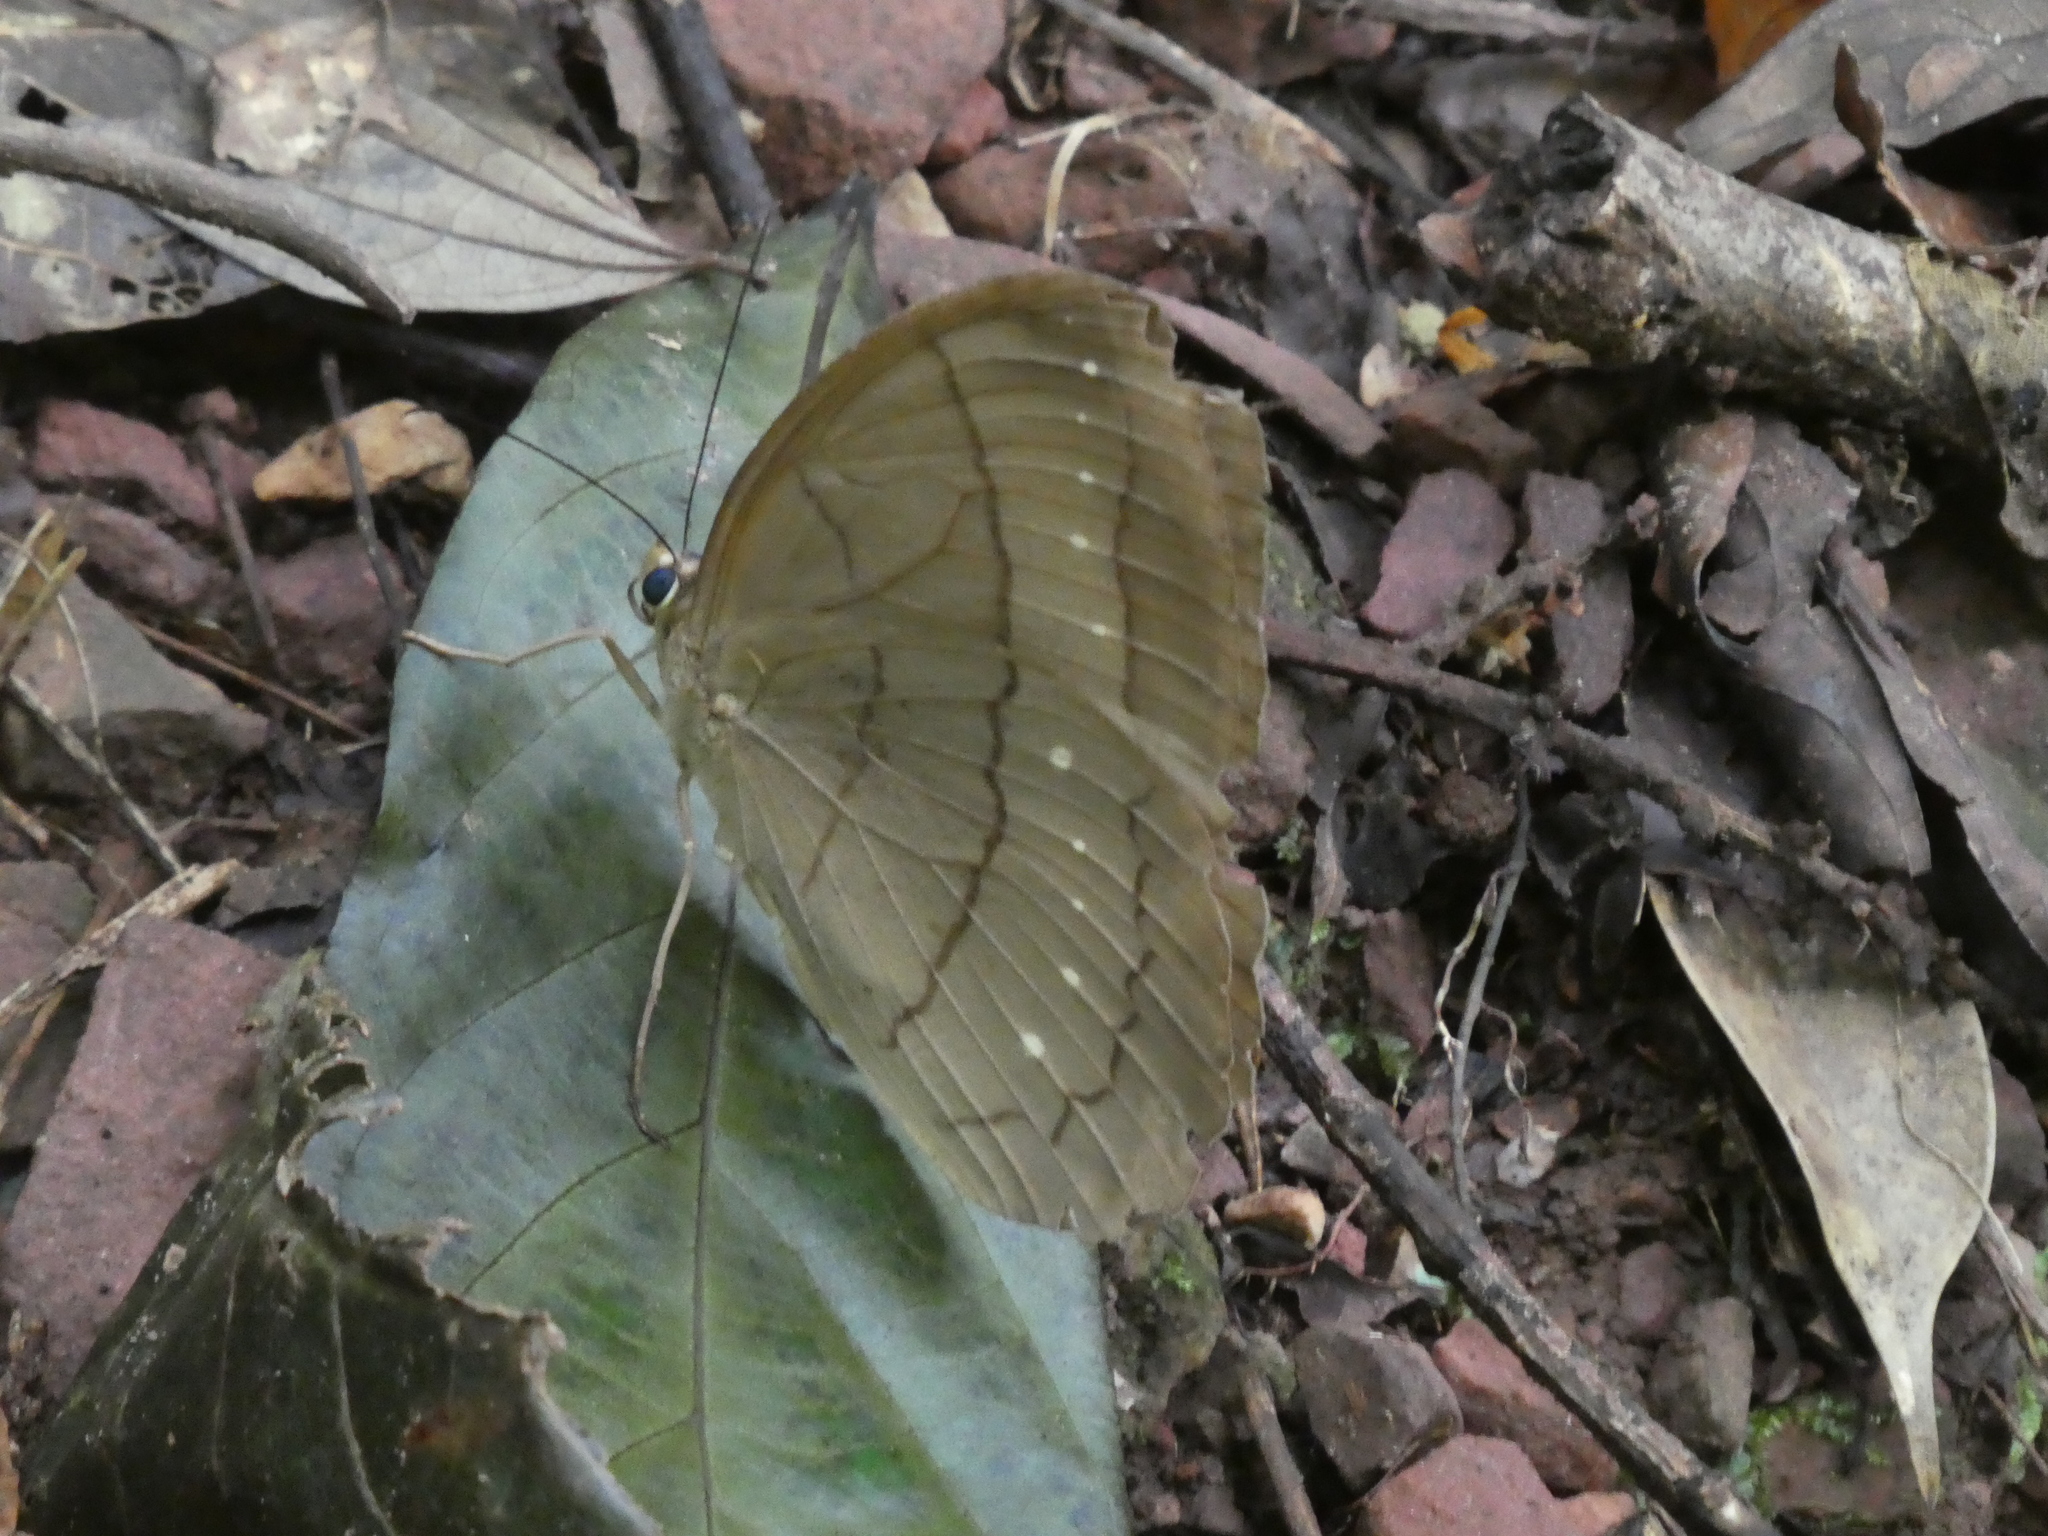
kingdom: Animalia
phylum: Arthropoda
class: Insecta
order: Lepidoptera
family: Nymphalidae
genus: Faunis
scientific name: Faunis aerope
